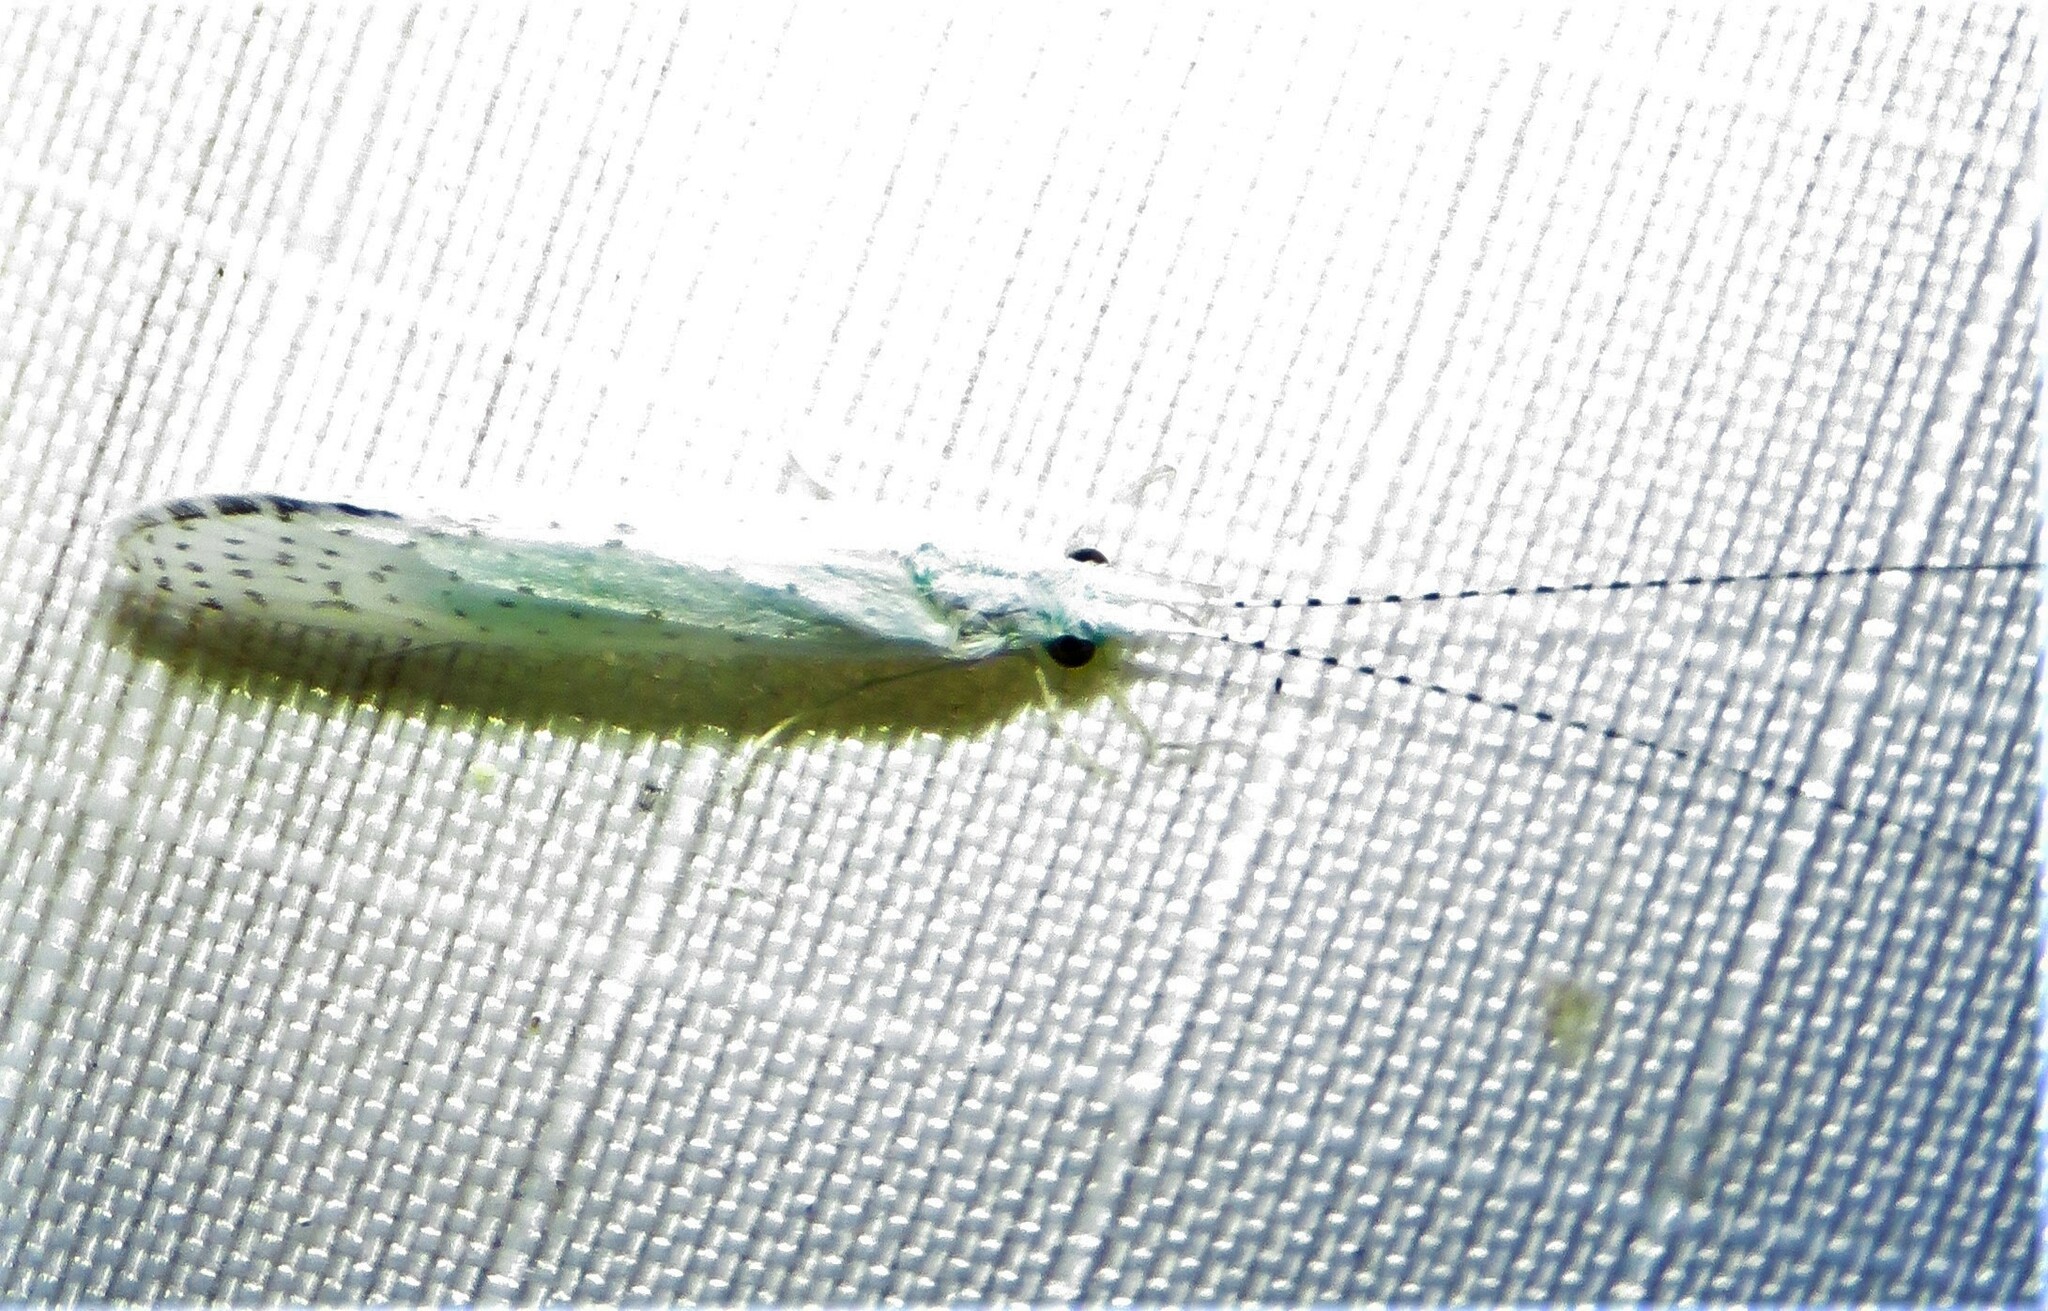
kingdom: Animalia
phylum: Arthropoda
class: Insecta
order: Trichoptera
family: Leptoceridae
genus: Nectopsyche
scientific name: Nectopsyche candida
